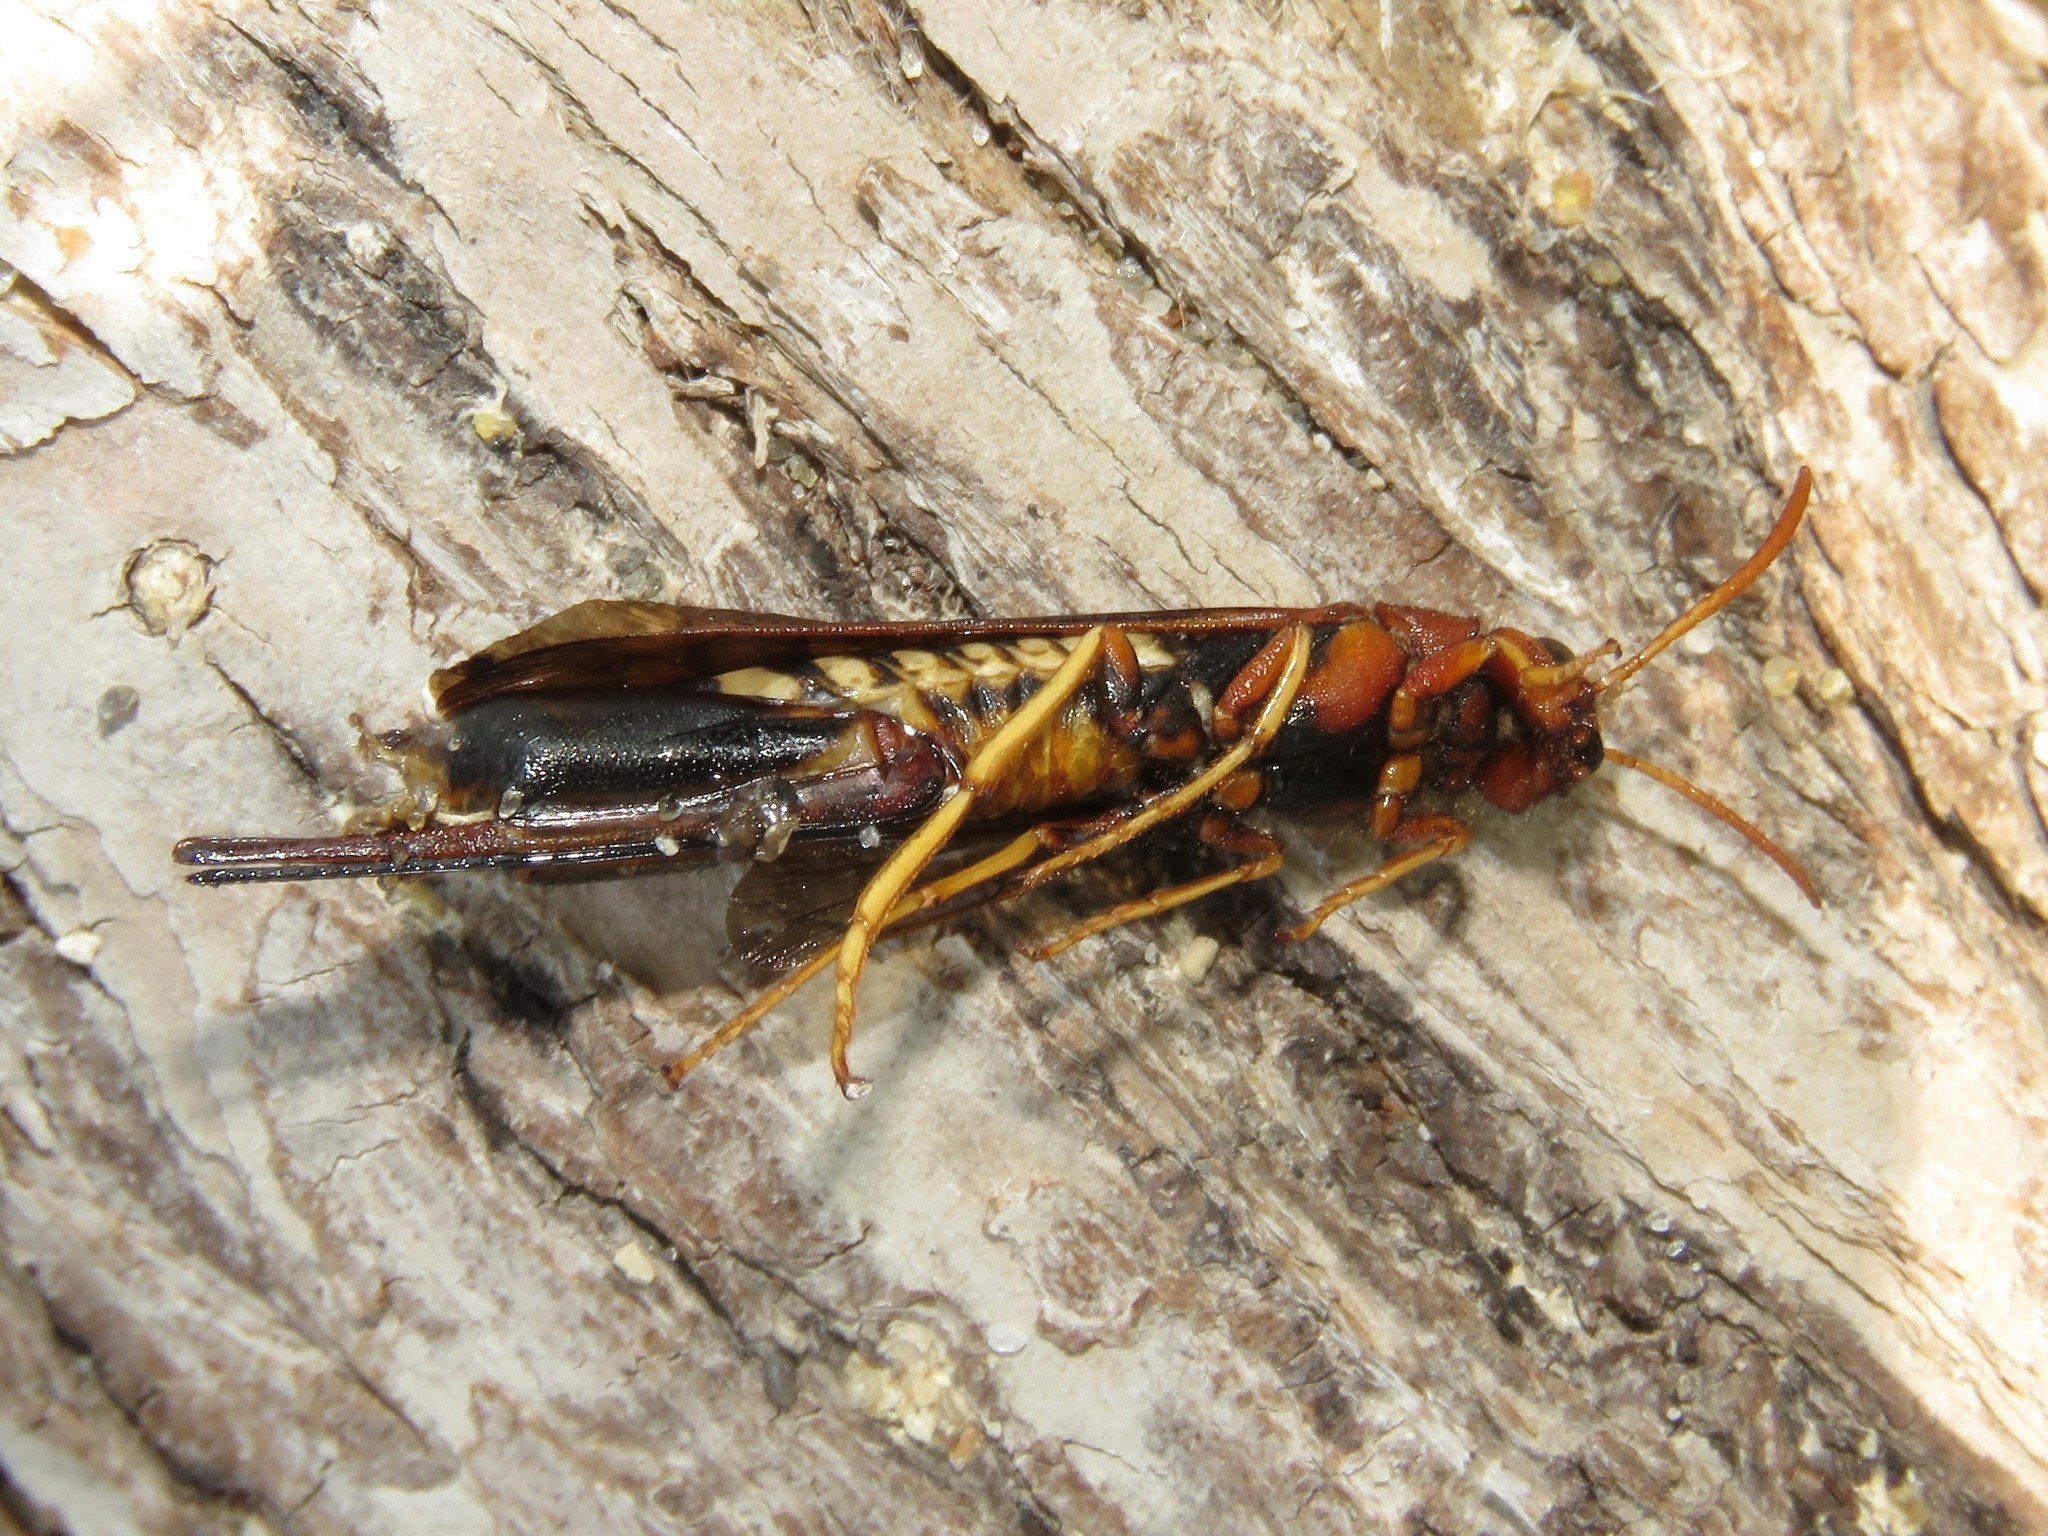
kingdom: Animalia
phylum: Arthropoda
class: Insecta
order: Hymenoptera
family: Siricidae
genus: Tremex
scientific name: Tremex columba
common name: Wasp
